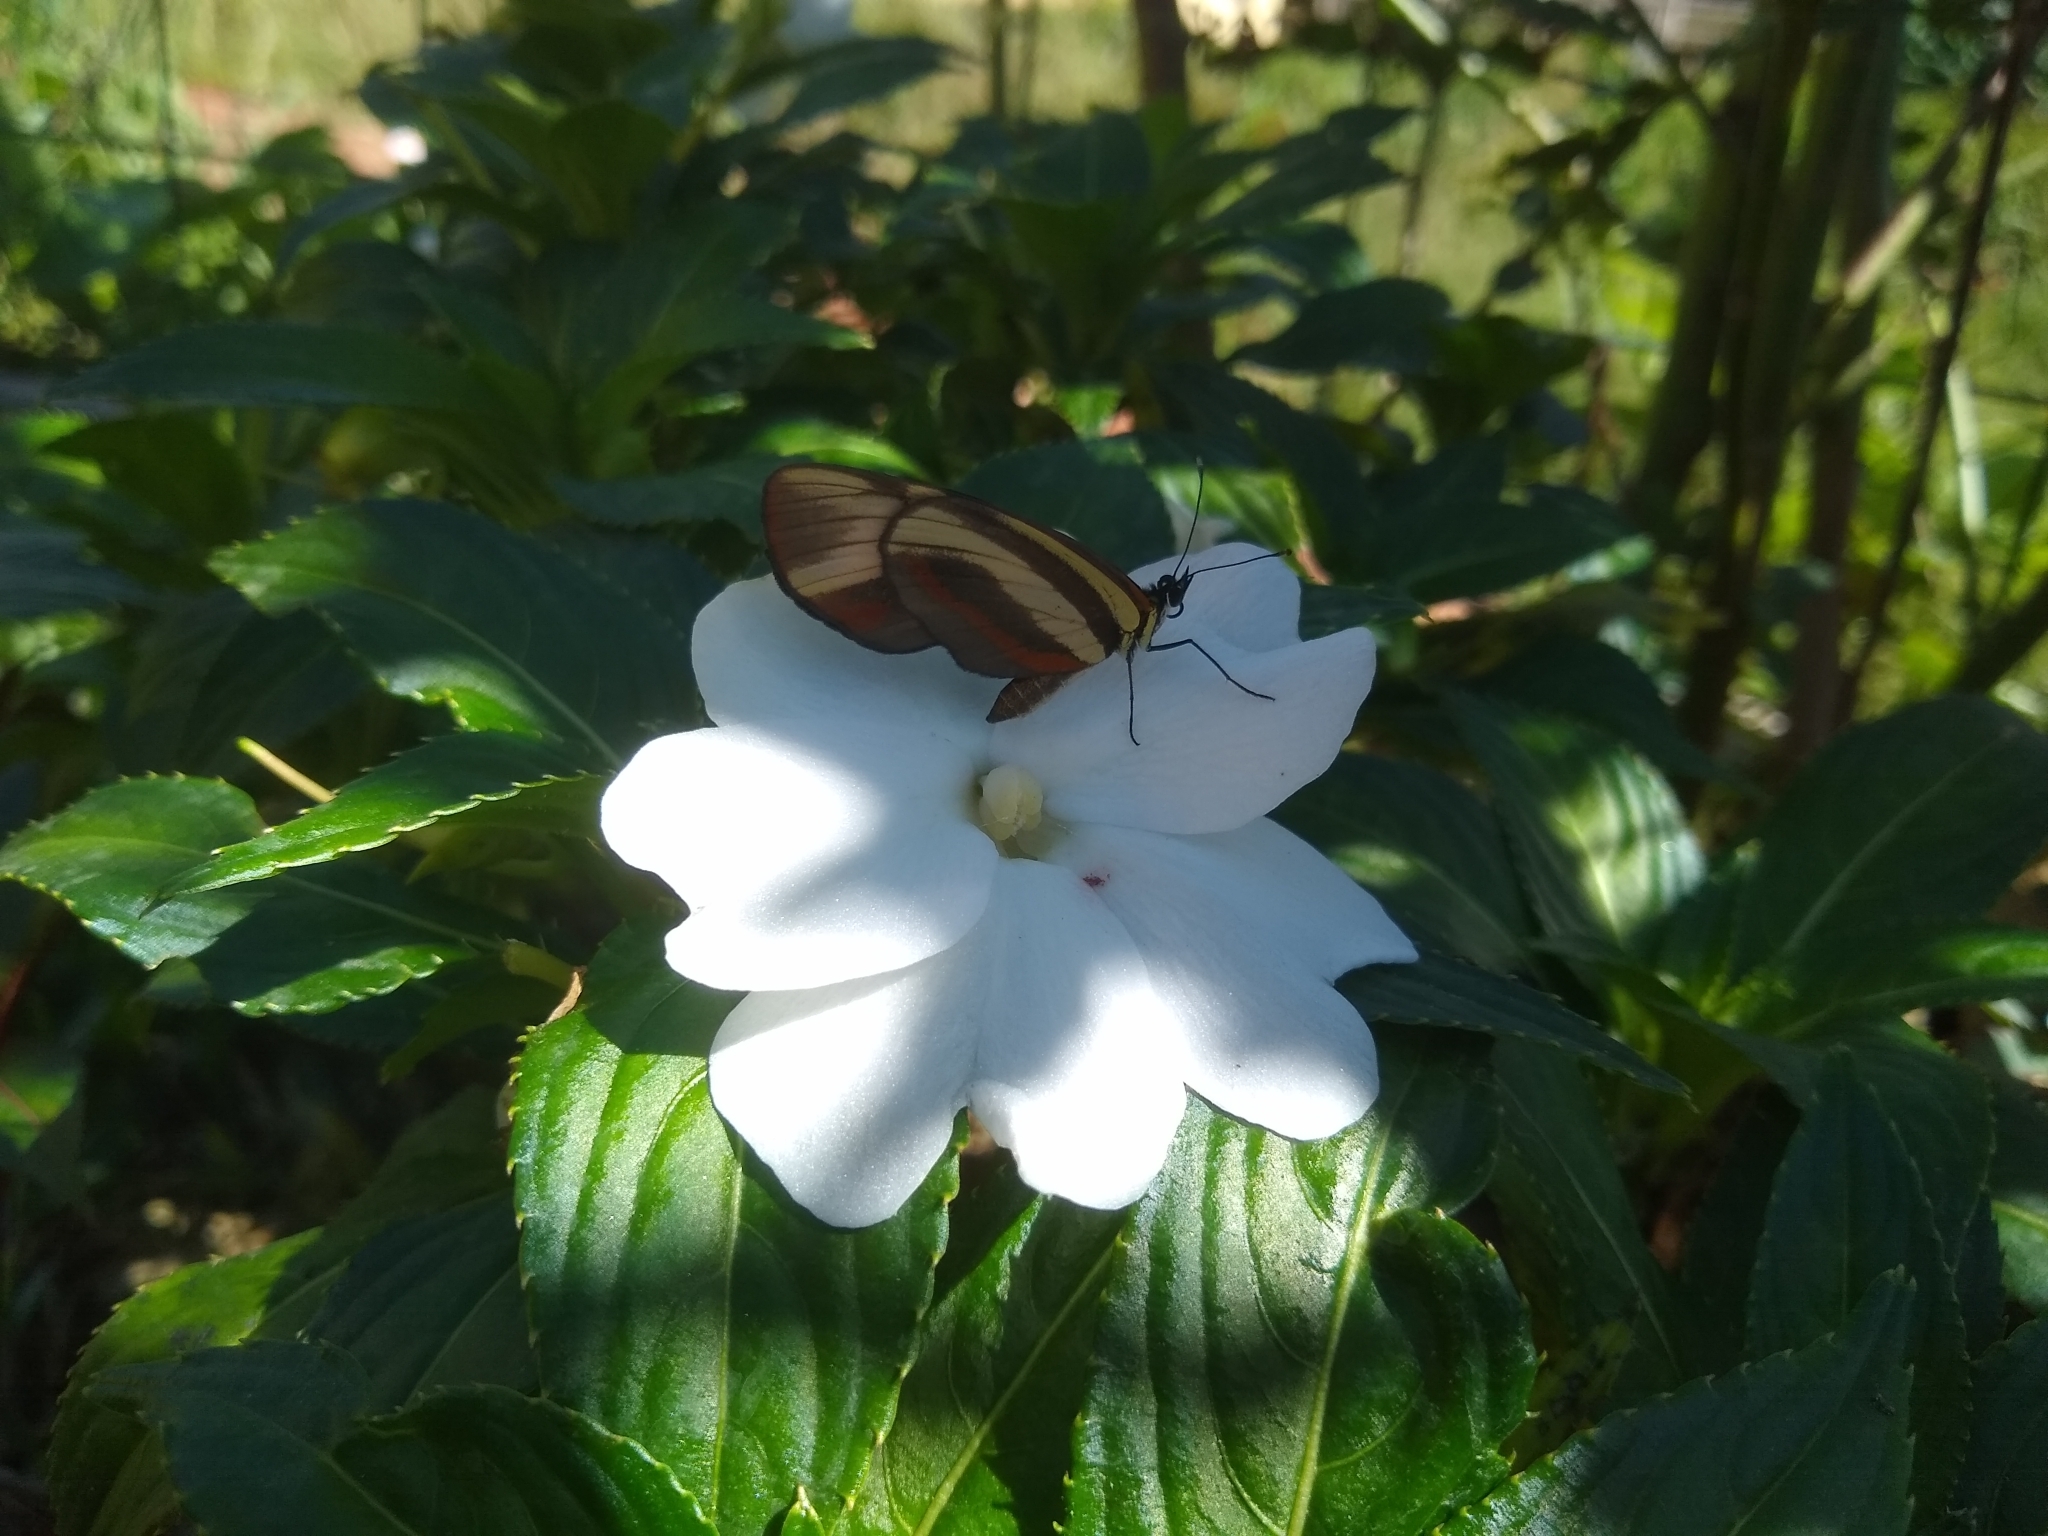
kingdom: Animalia
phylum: Arthropoda
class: Insecta
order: Lepidoptera
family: Nymphalidae
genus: Eresia
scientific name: Eresia lansdorfi
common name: Lansdorf's crescent
